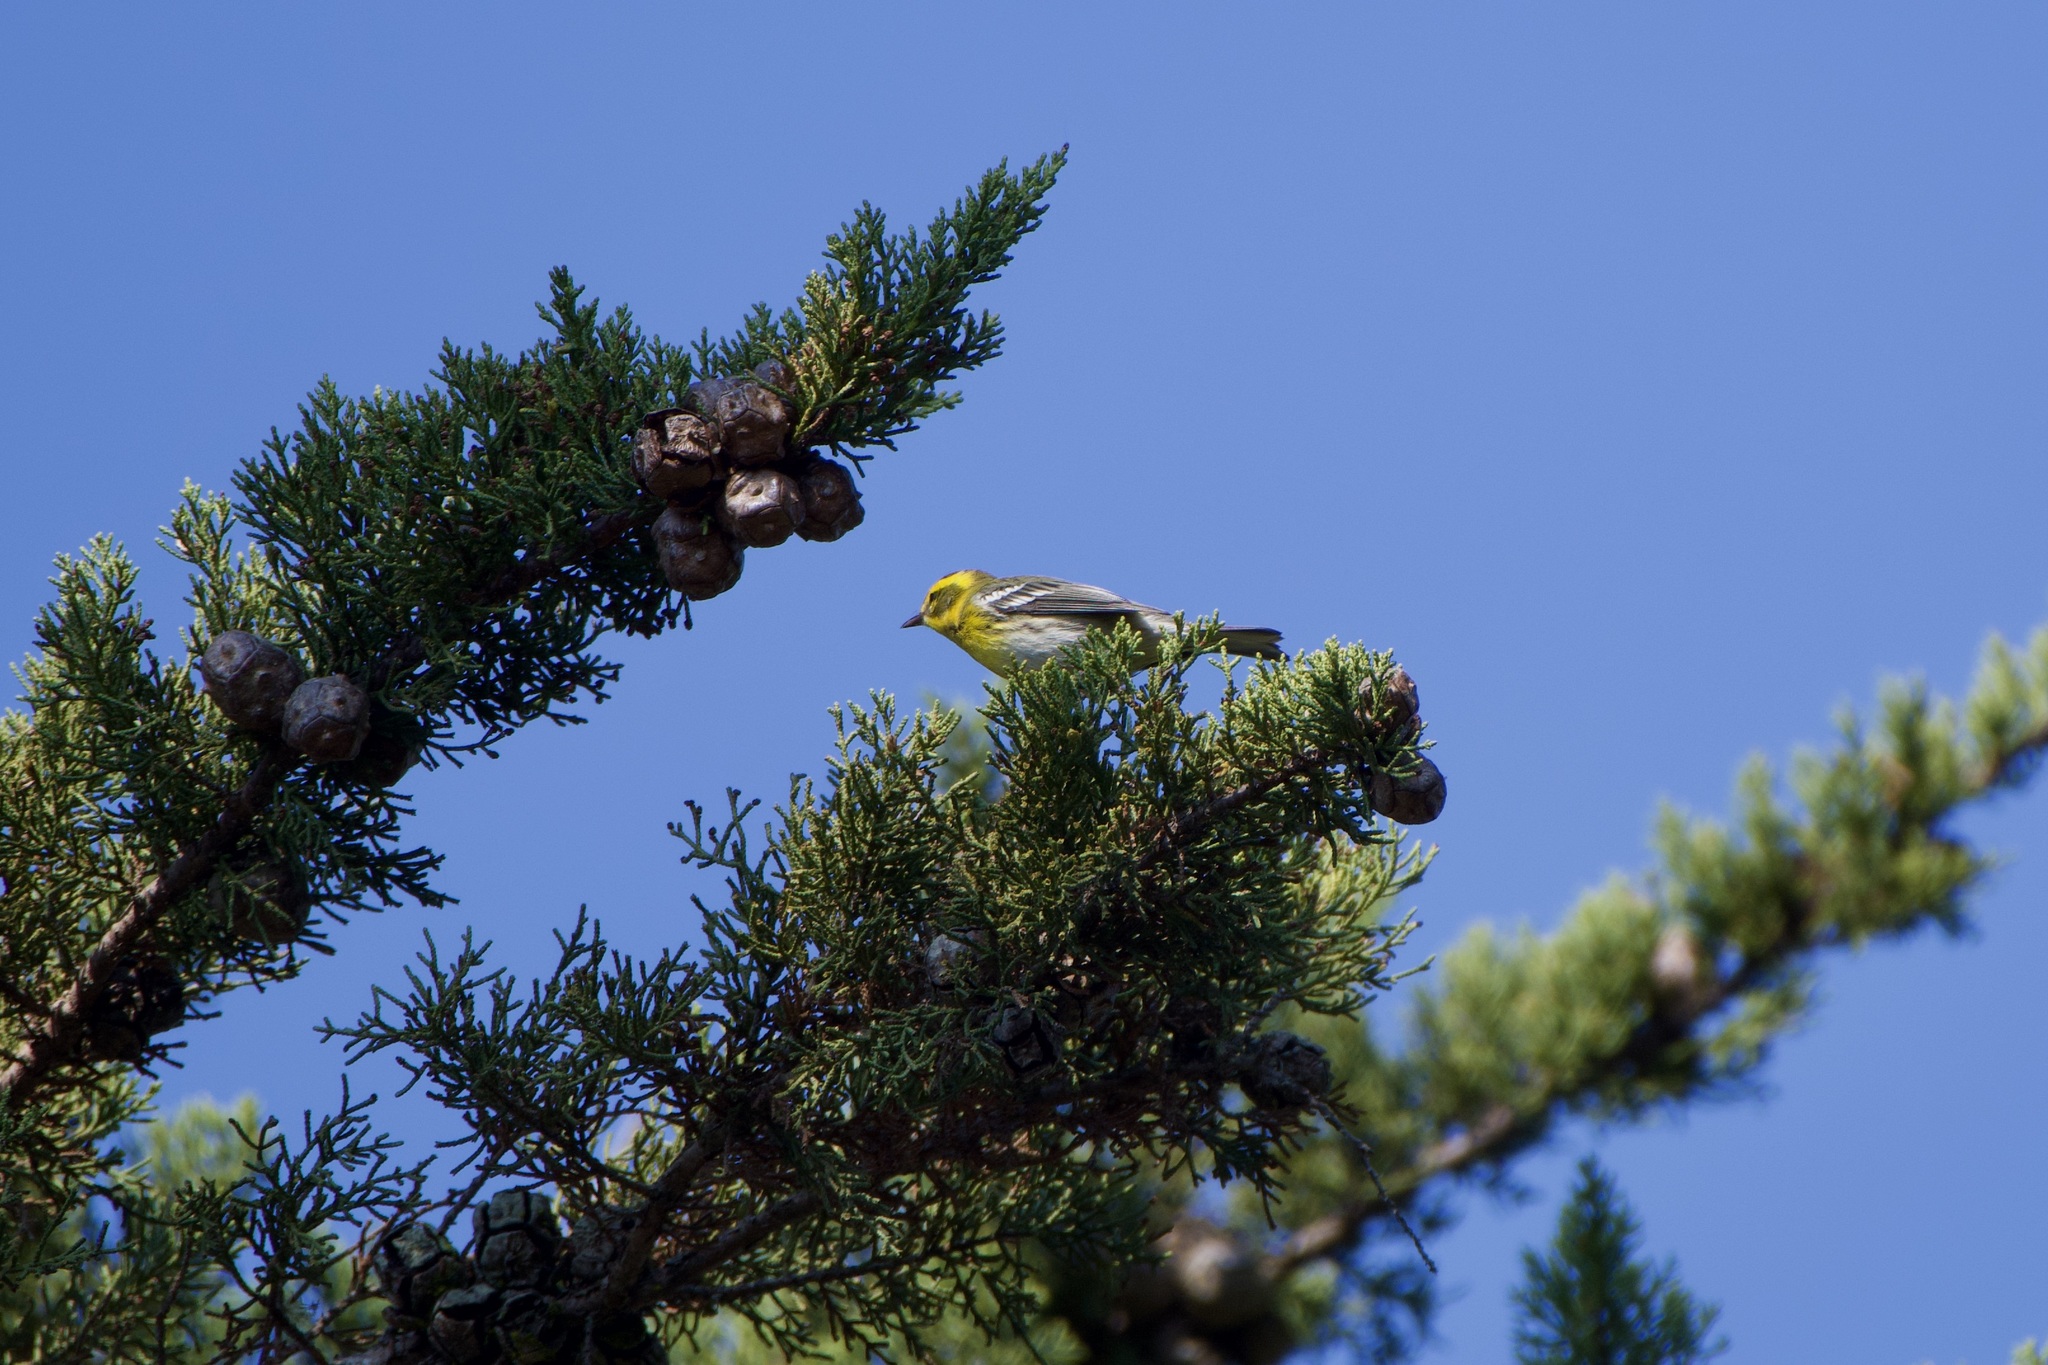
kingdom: Animalia
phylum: Chordata
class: Aves
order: Passeriformes
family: Parulidae
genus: Setophaga
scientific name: Setophaga townsendi
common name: Townsend's warbler
